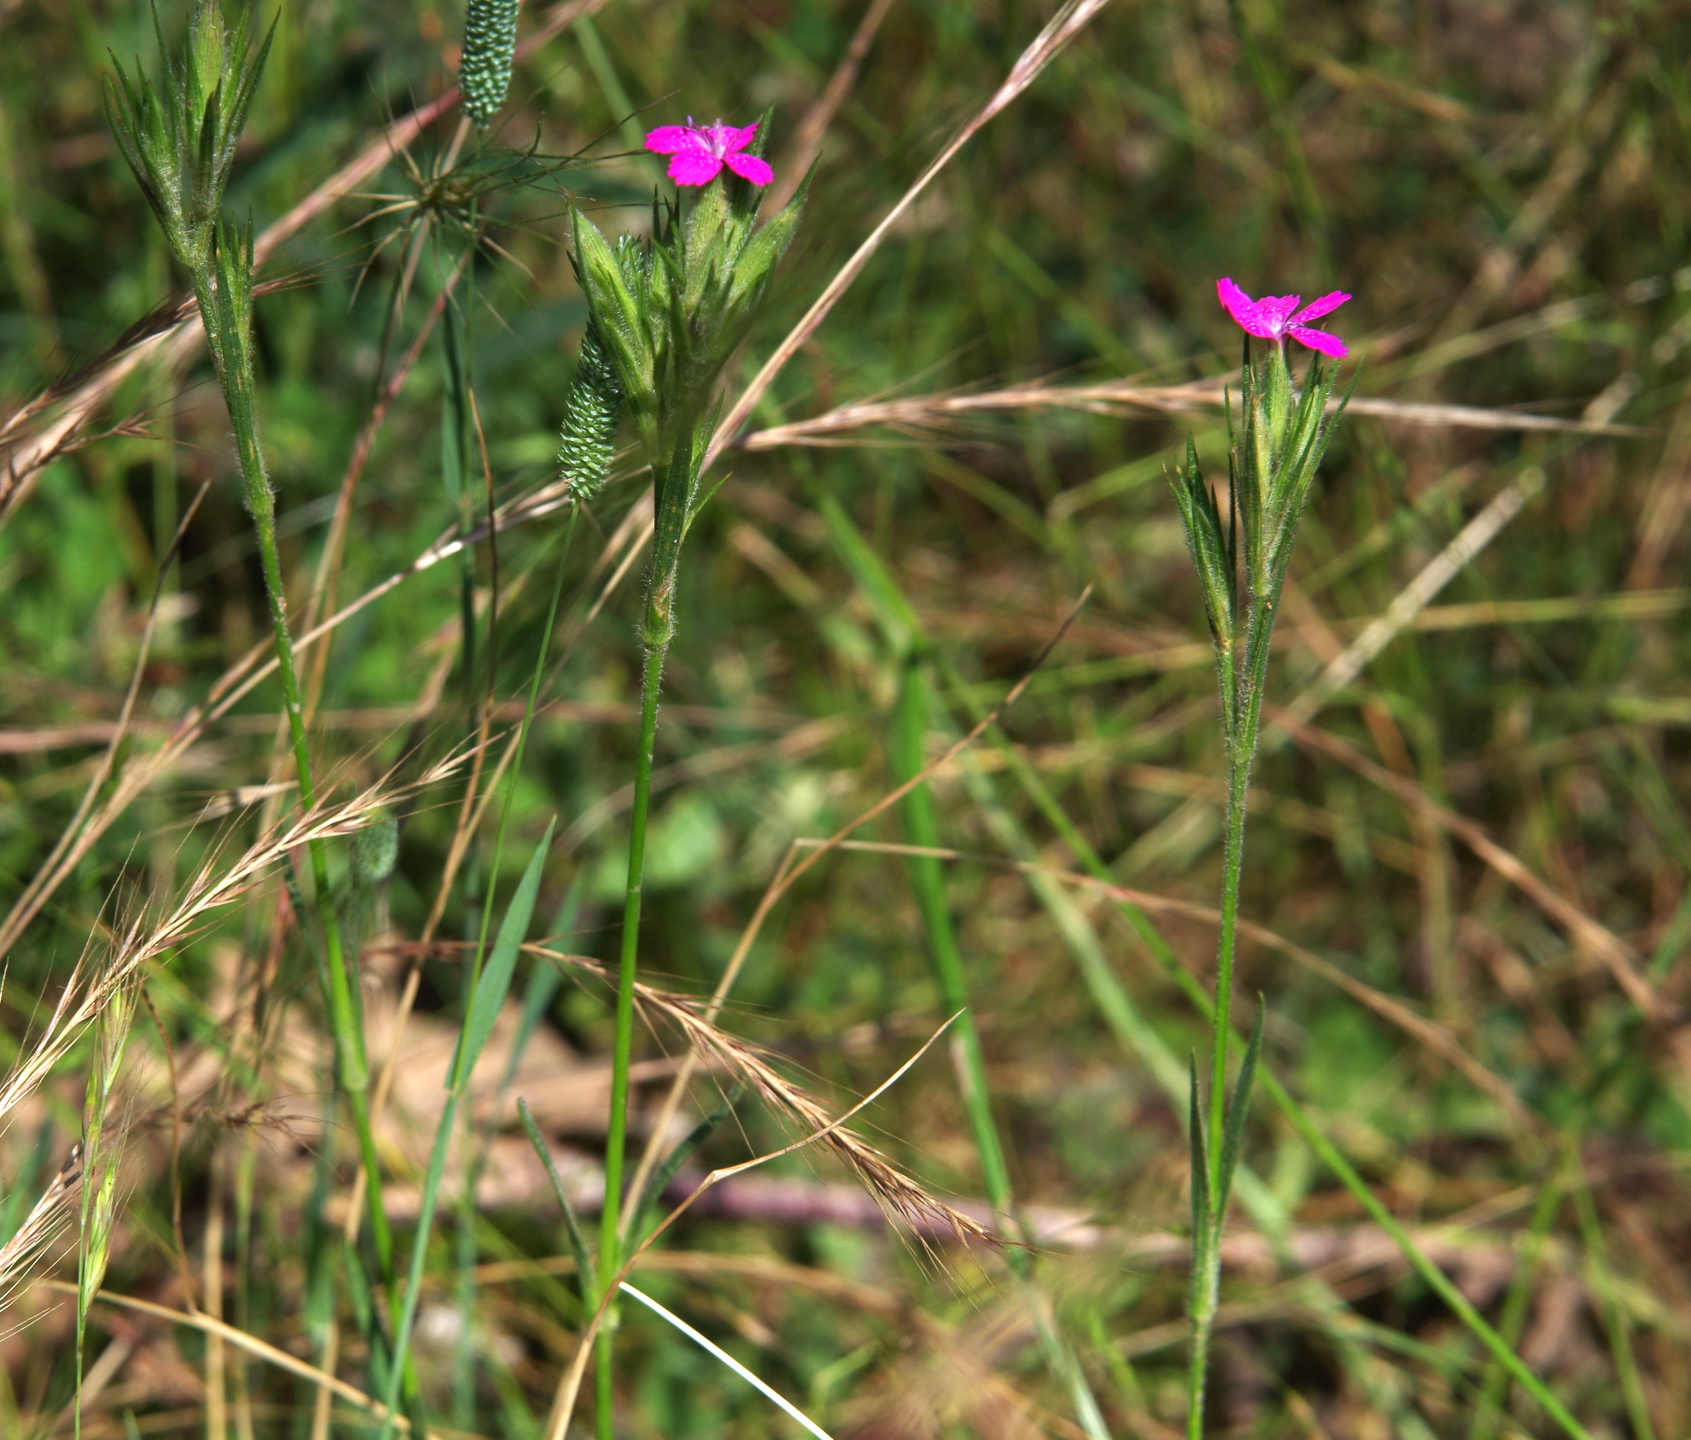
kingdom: Plantae
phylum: Tracheophyta
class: Magnoliopsida
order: Caryophyllales
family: Caryophyllaceae
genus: Dianthus
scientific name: Dianthus armeria
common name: Deptford pink
